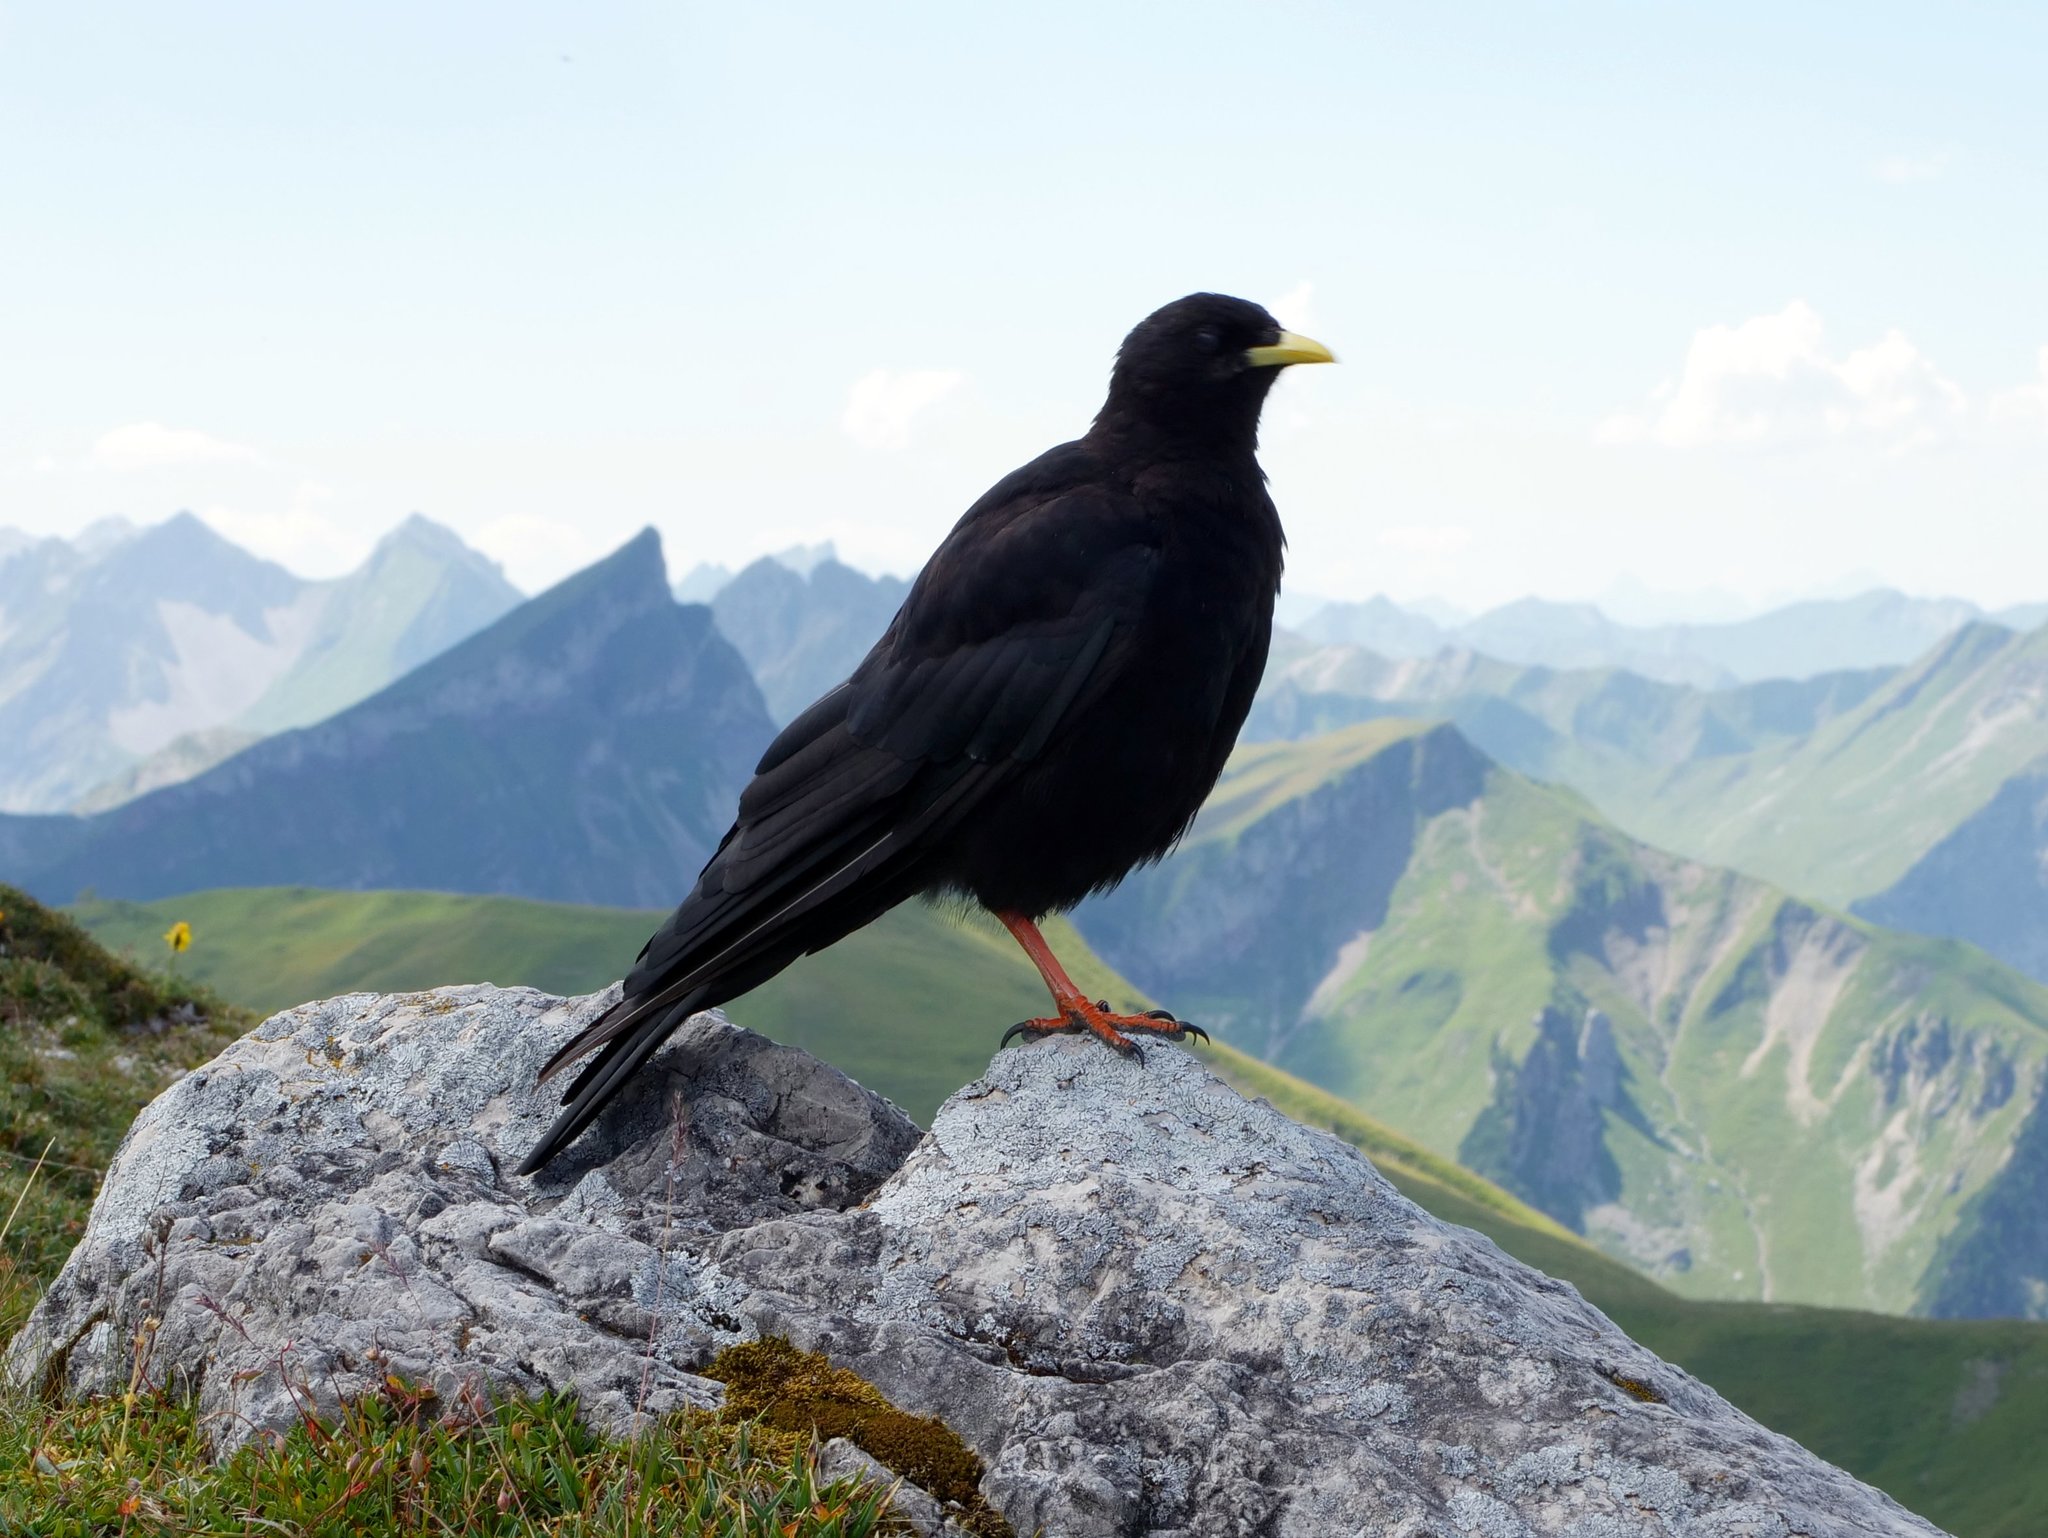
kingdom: Animalia
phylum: Chordata
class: Aves
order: Passeriformes
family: Corvidae
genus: Pyrrhocorax
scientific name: Pyrrhocorax graculus
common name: Alpine chough
